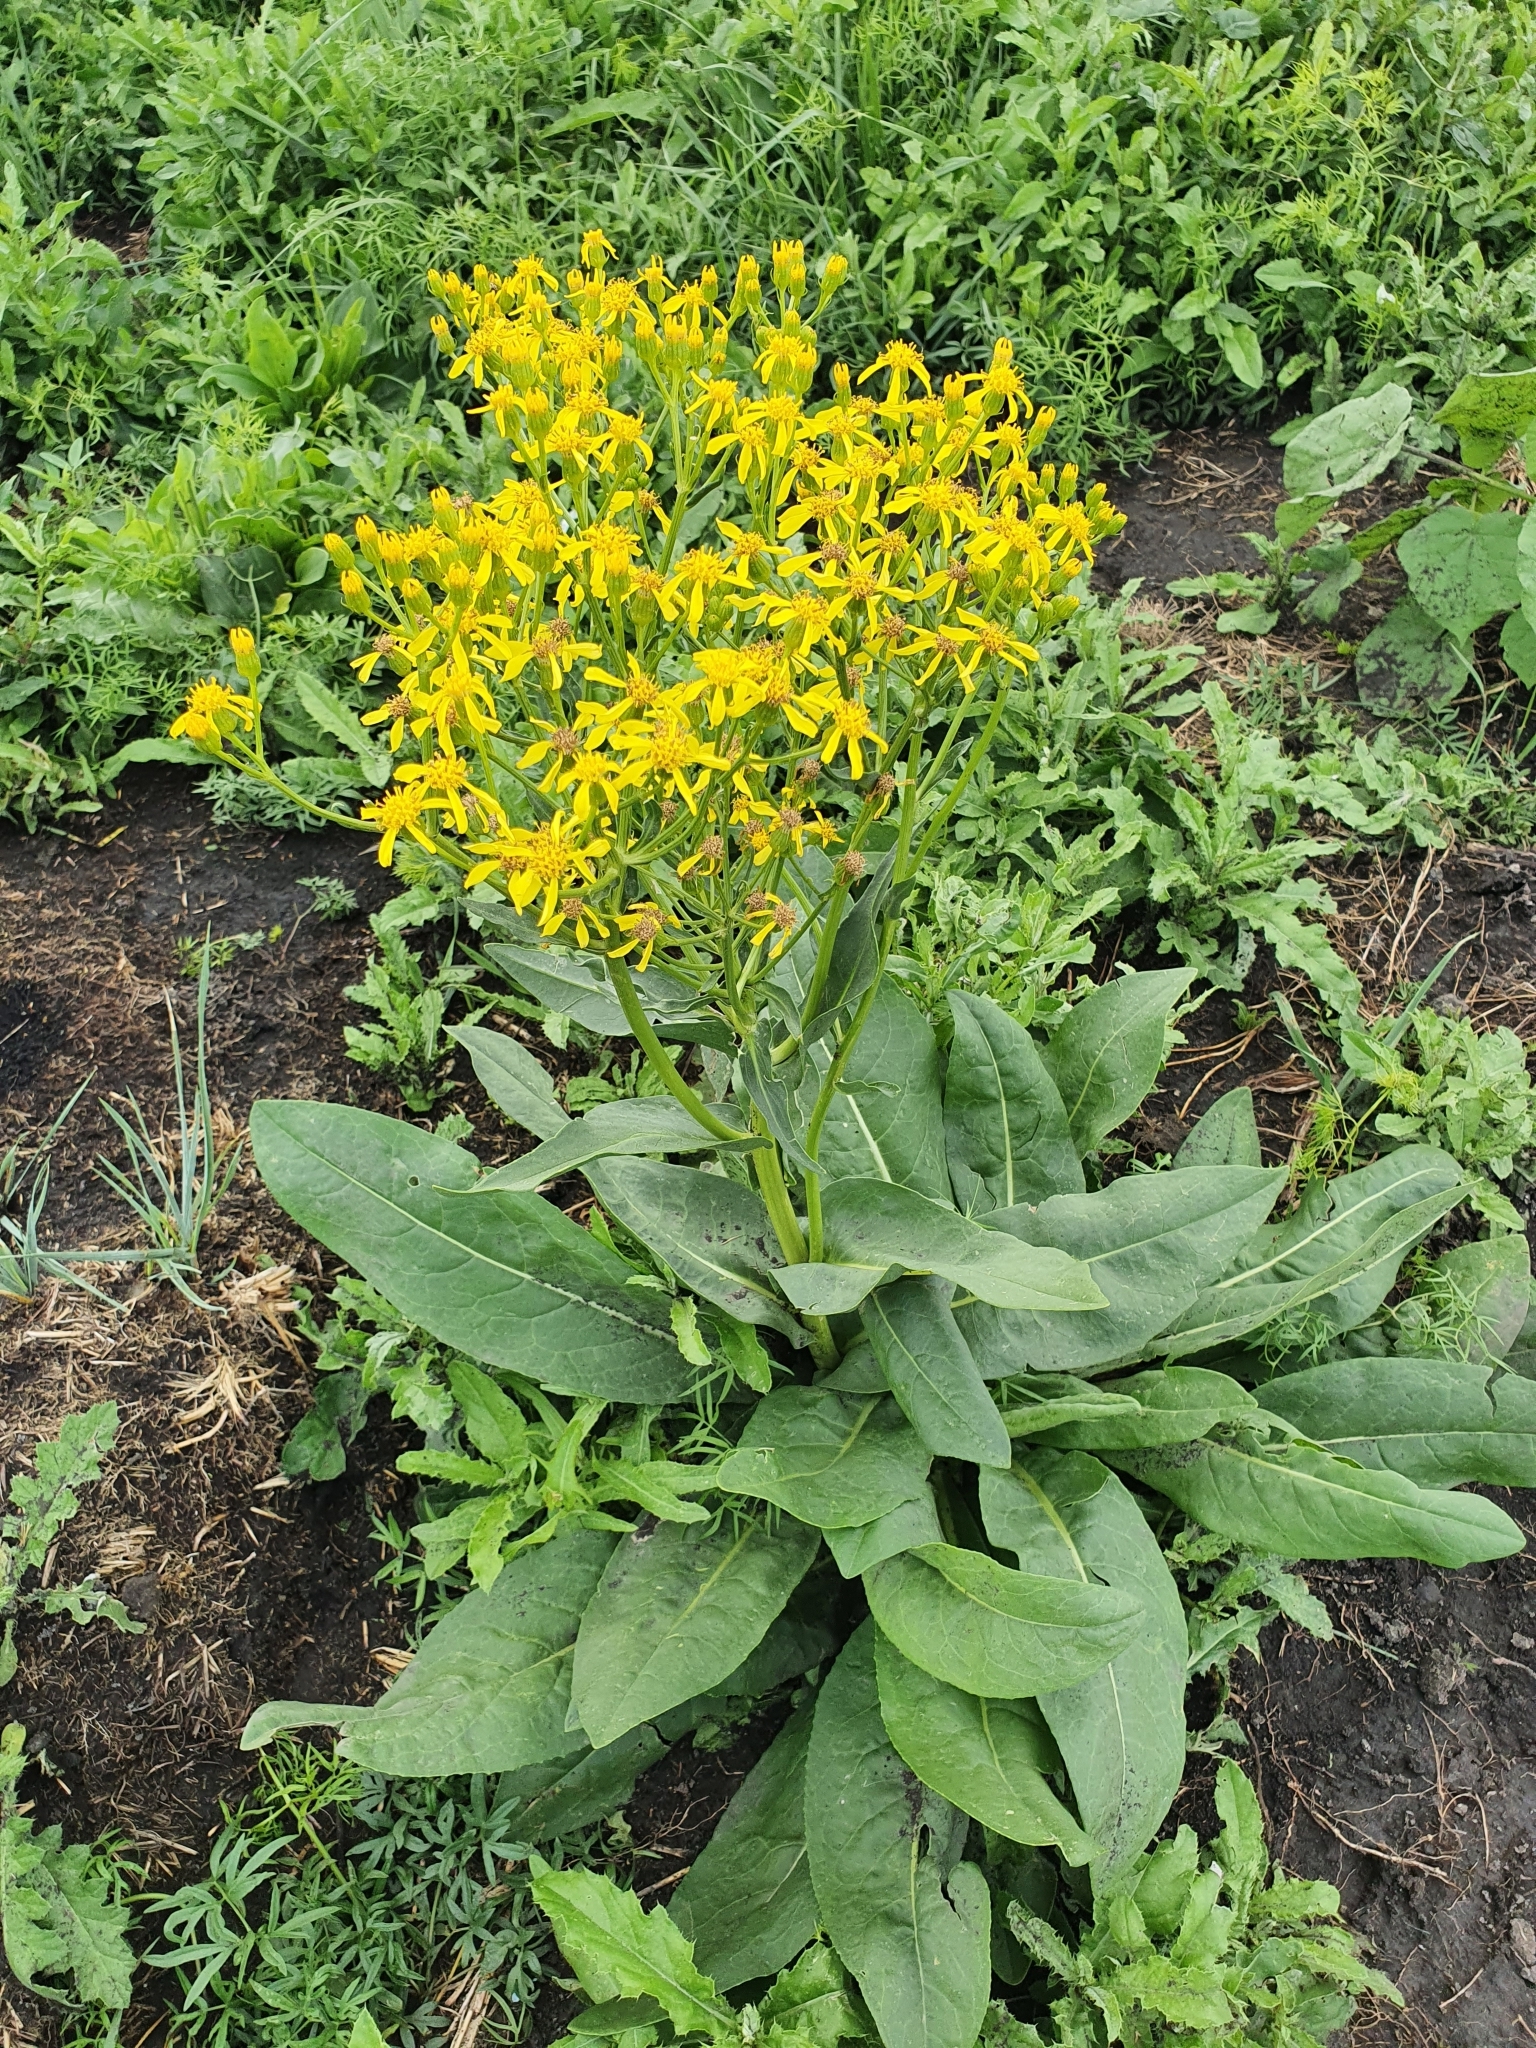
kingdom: Plantae
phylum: Tracheophyta
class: Magnoliopsida
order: Asterales
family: Asteraceae
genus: Senecio
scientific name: Senecio doria
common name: Golden ragwort
